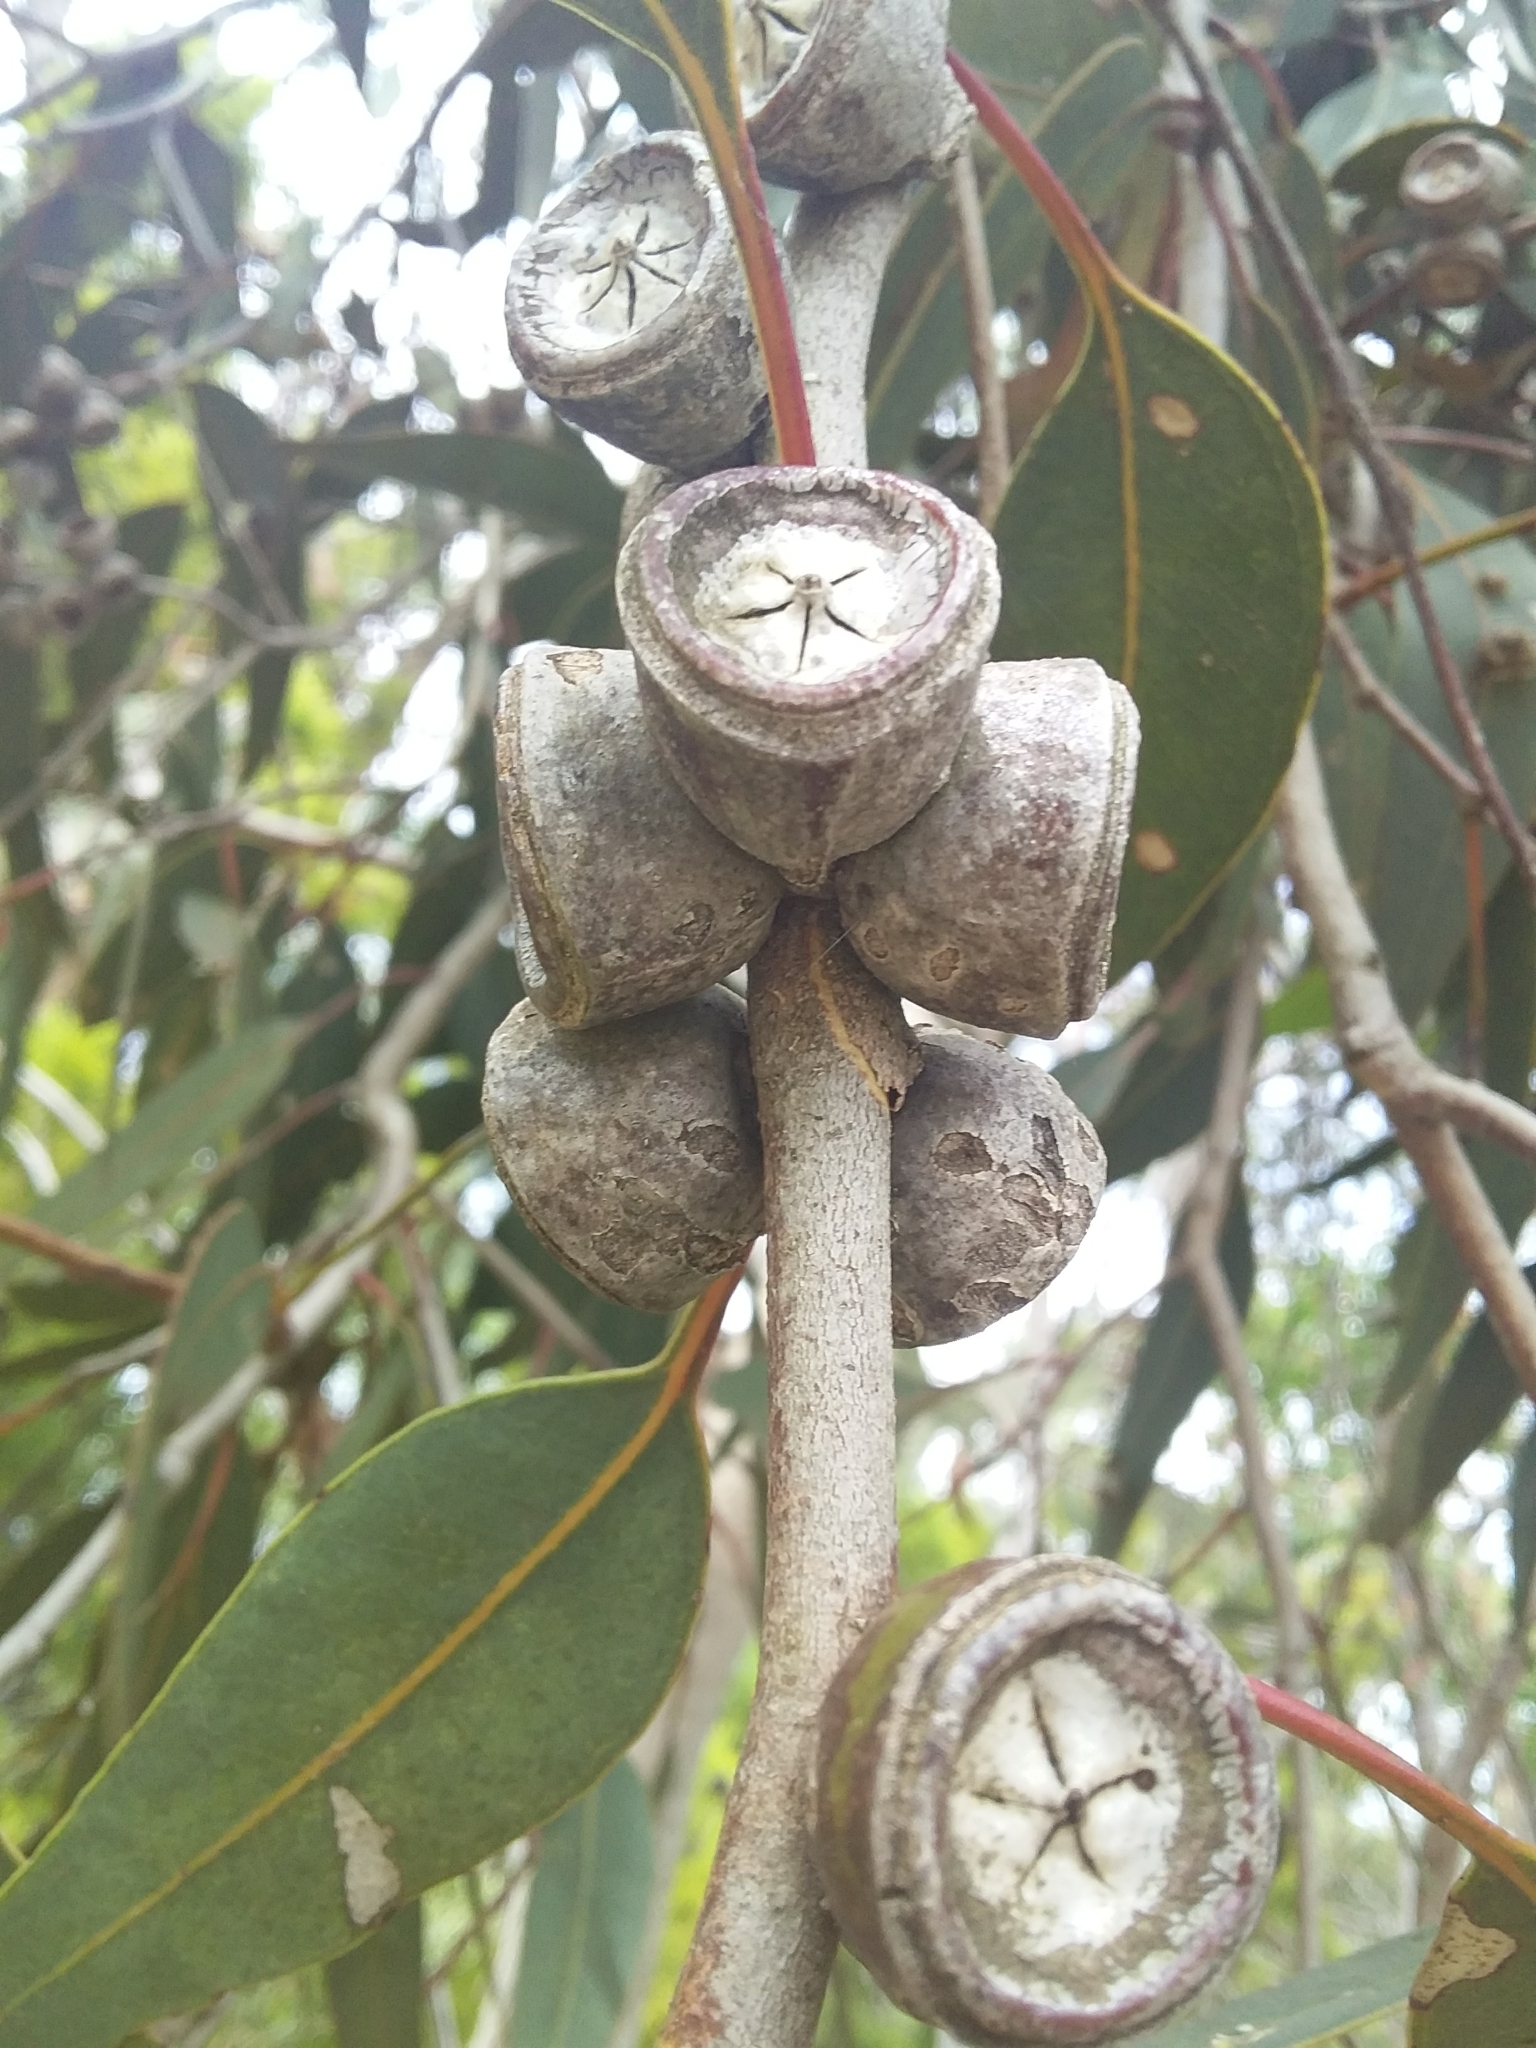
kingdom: Plantae
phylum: Tracheophyta
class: Magnoliopsida
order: Myrtales
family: Myrtaceae
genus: Eucalyptus
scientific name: Eucalyptus cosmophylla
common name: Bog-gum
